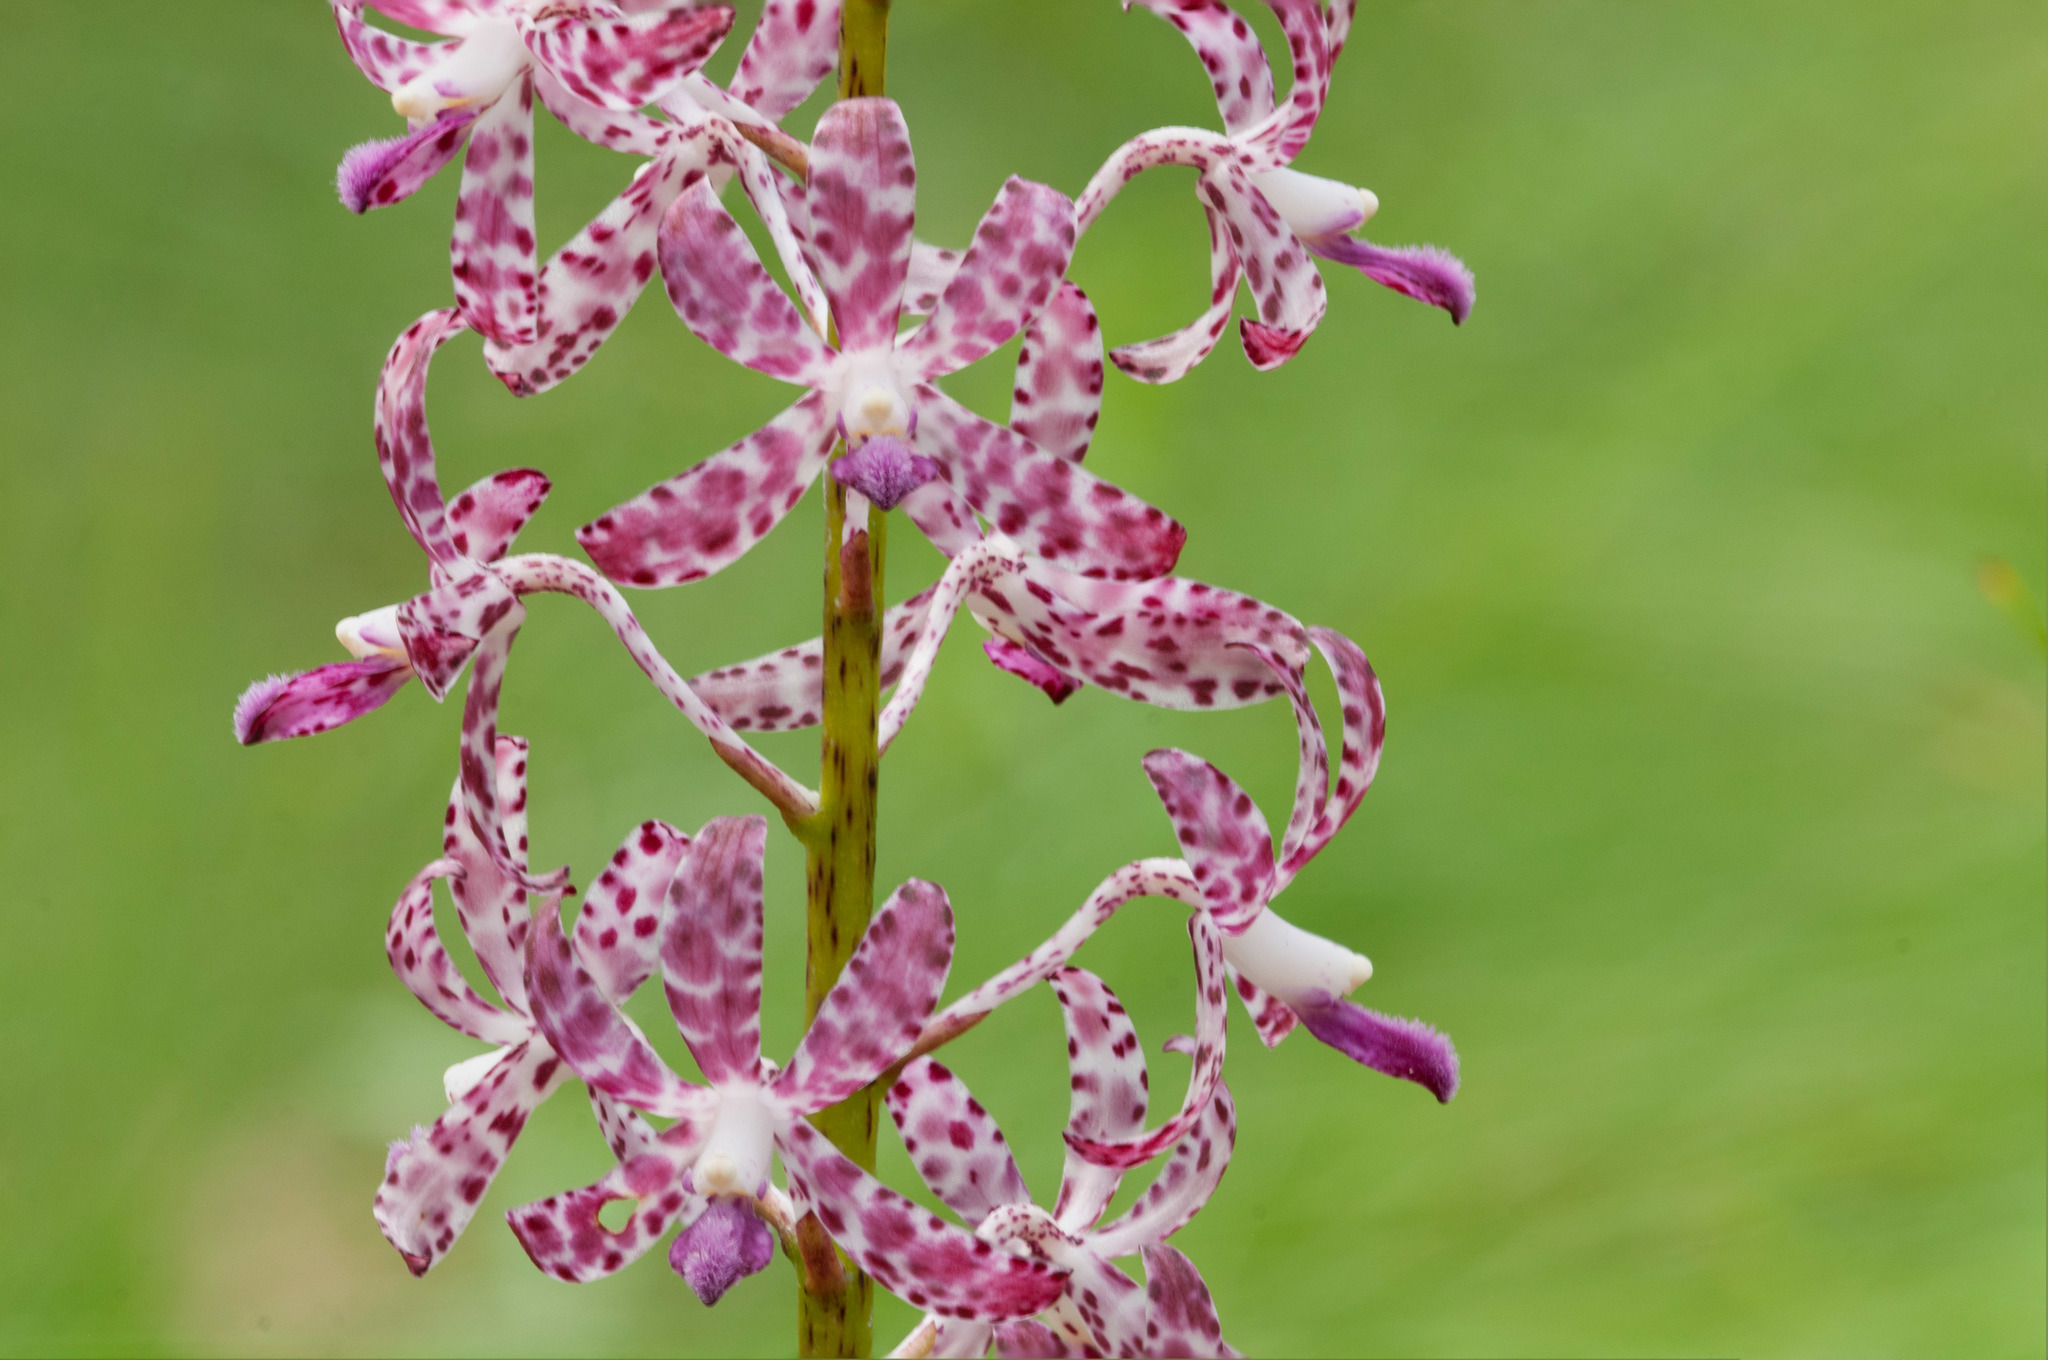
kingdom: Plantae
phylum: Tracheophyta
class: Liliopsida
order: Asparagales
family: Orchidaceae
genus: Dipodium
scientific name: Dipodium variegatum
